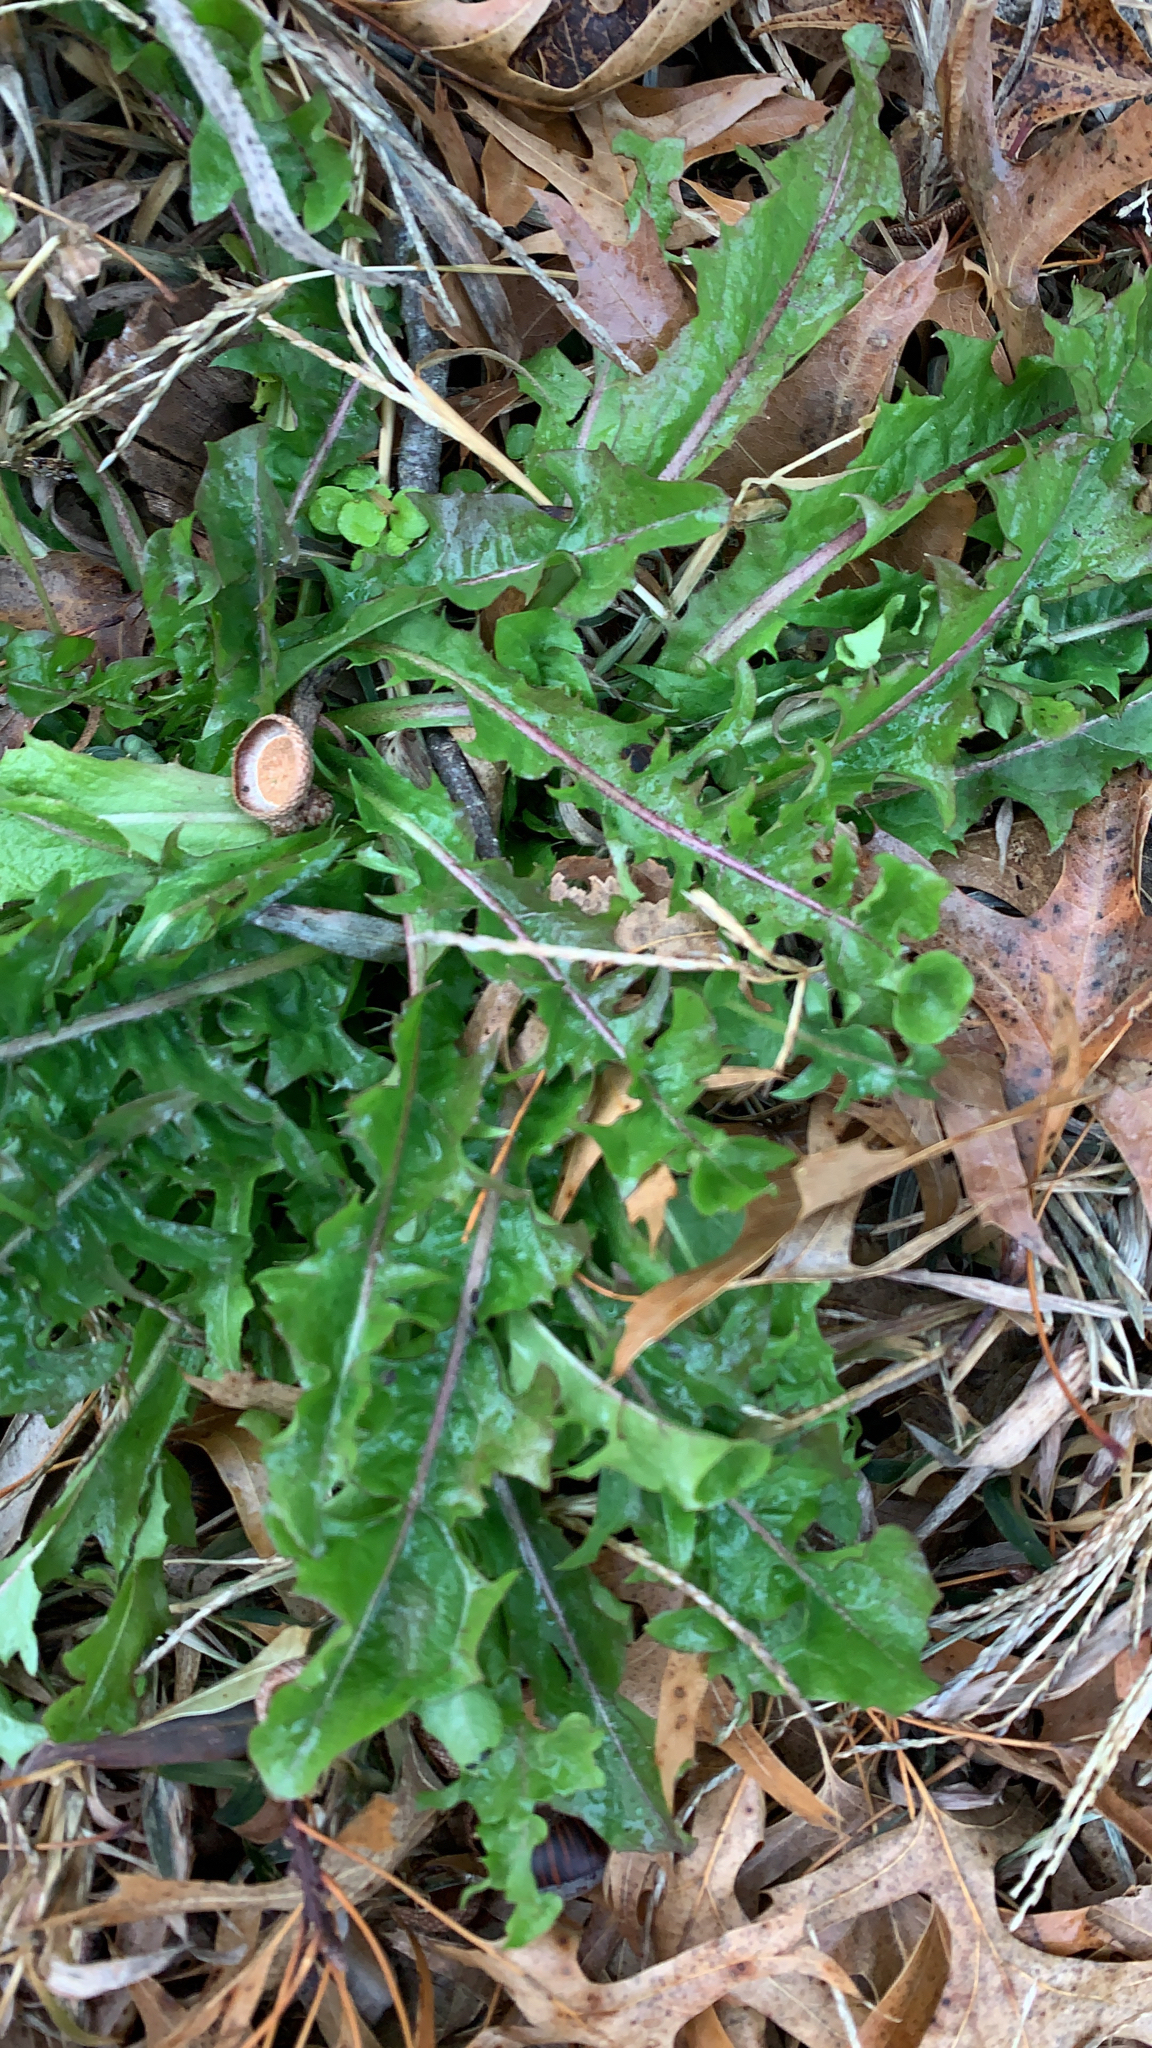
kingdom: Plantae
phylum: Tracheophyta
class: Magnoliopsida
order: Asterales
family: Asteraceae
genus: Taraxacum
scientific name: Taraxacum officinale
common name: Common dandelion
